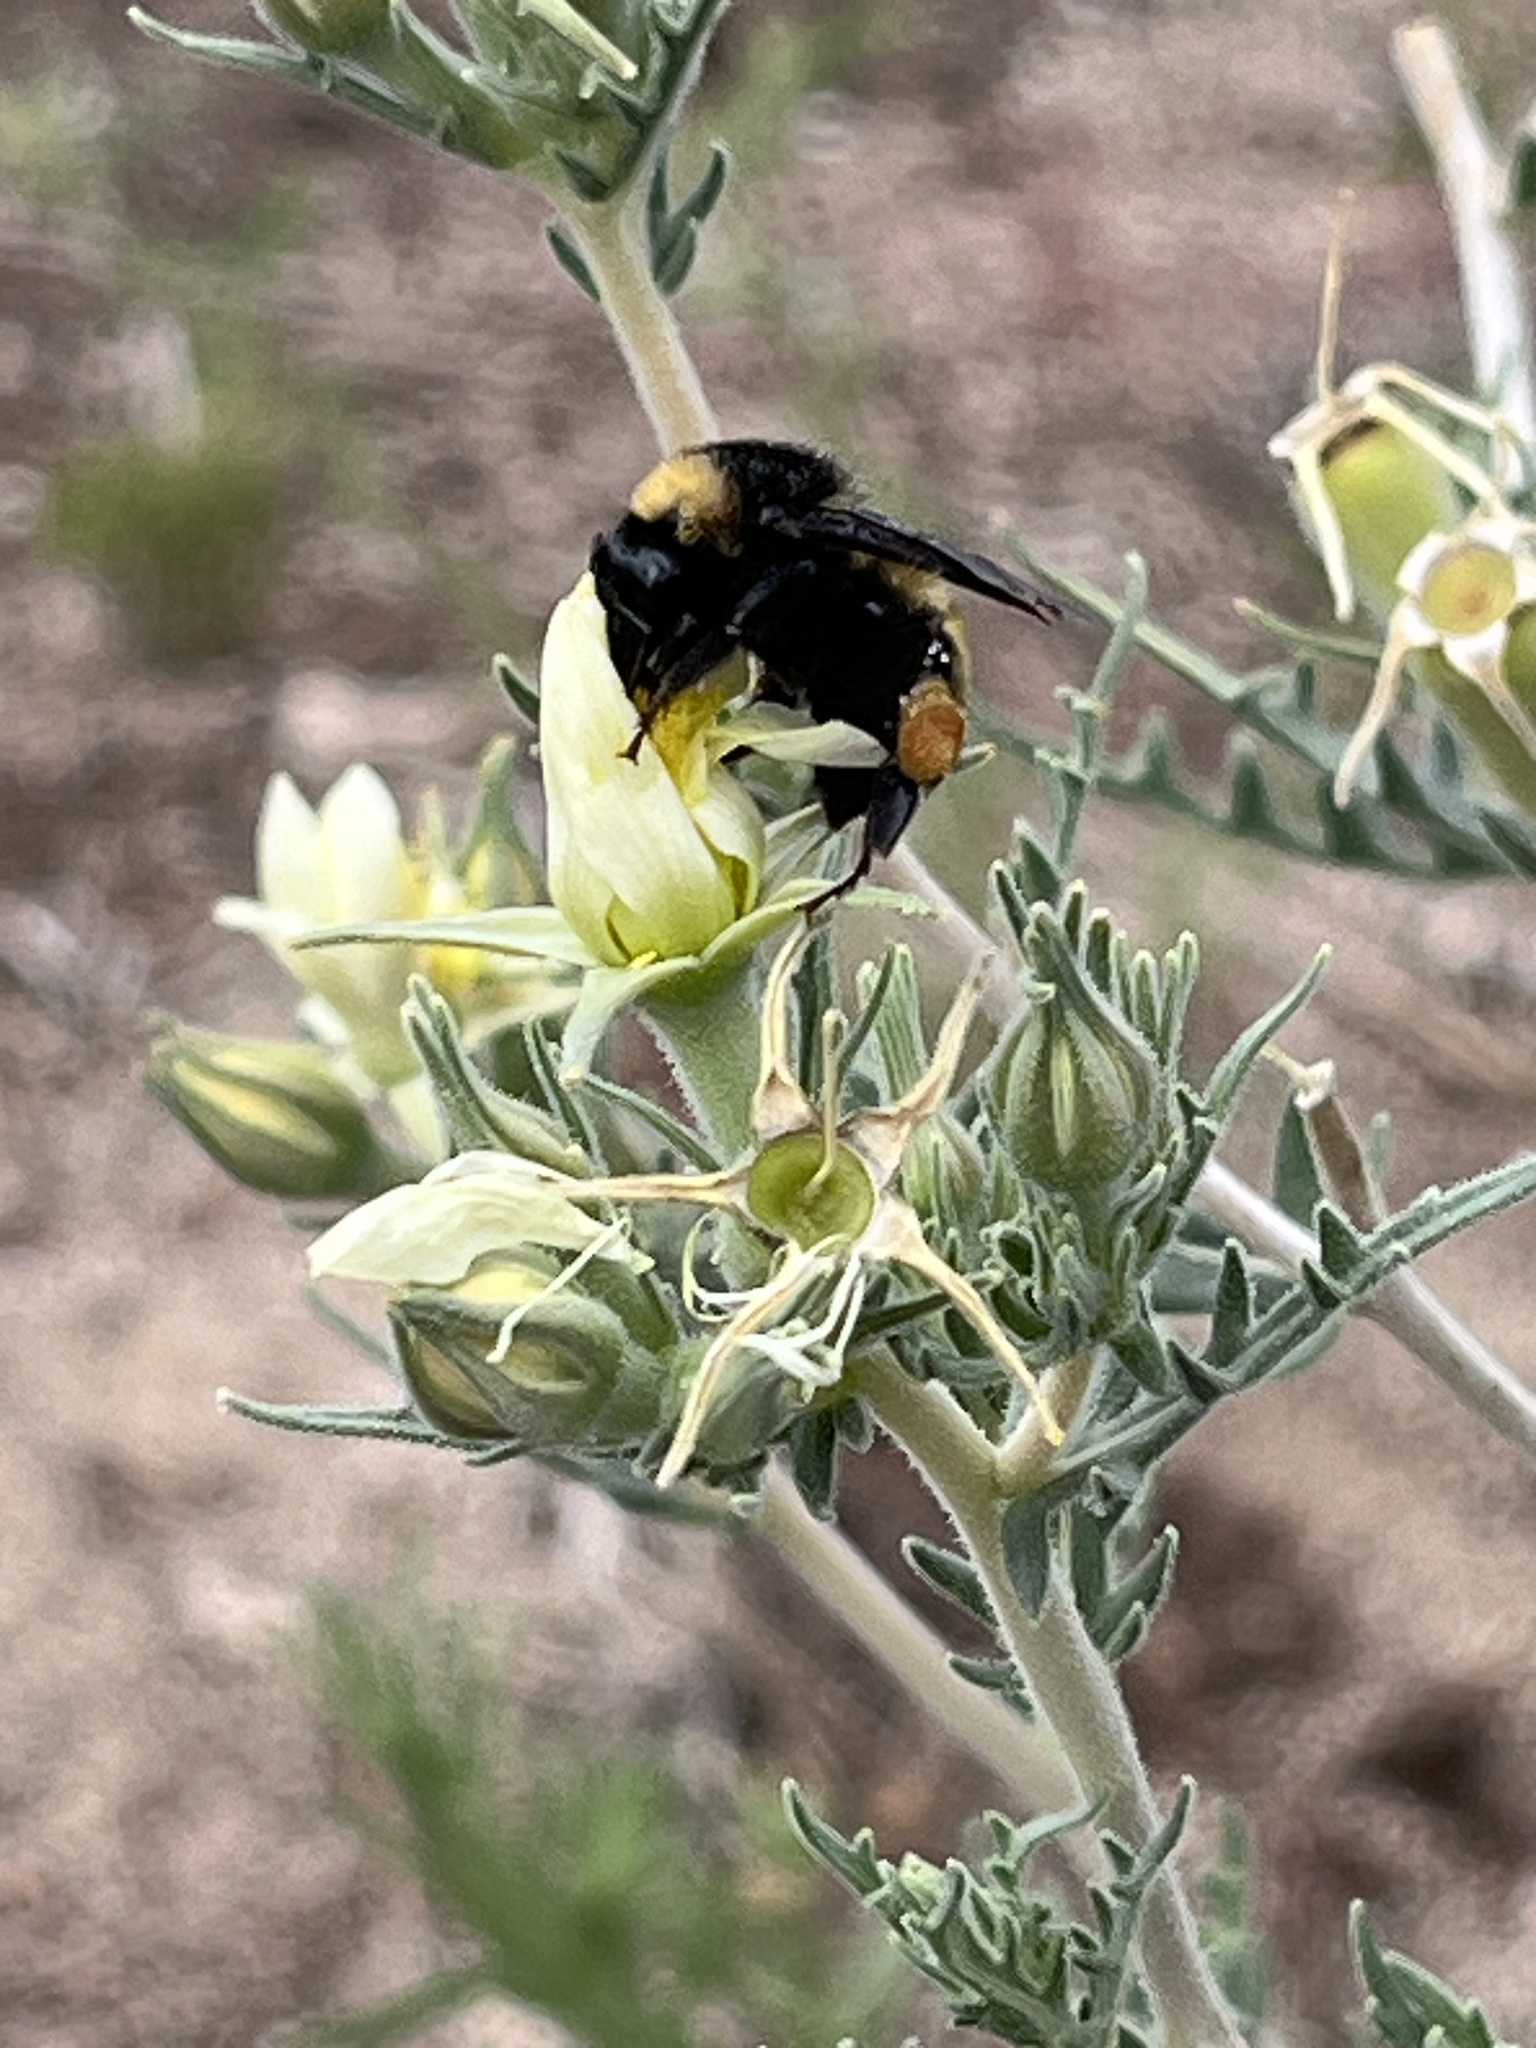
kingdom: Animalia
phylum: Arthropoda
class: Insecta
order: Hymenoptera
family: Apidae
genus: Bombus
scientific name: Bombus pensylvanicus
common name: Bumble bee
